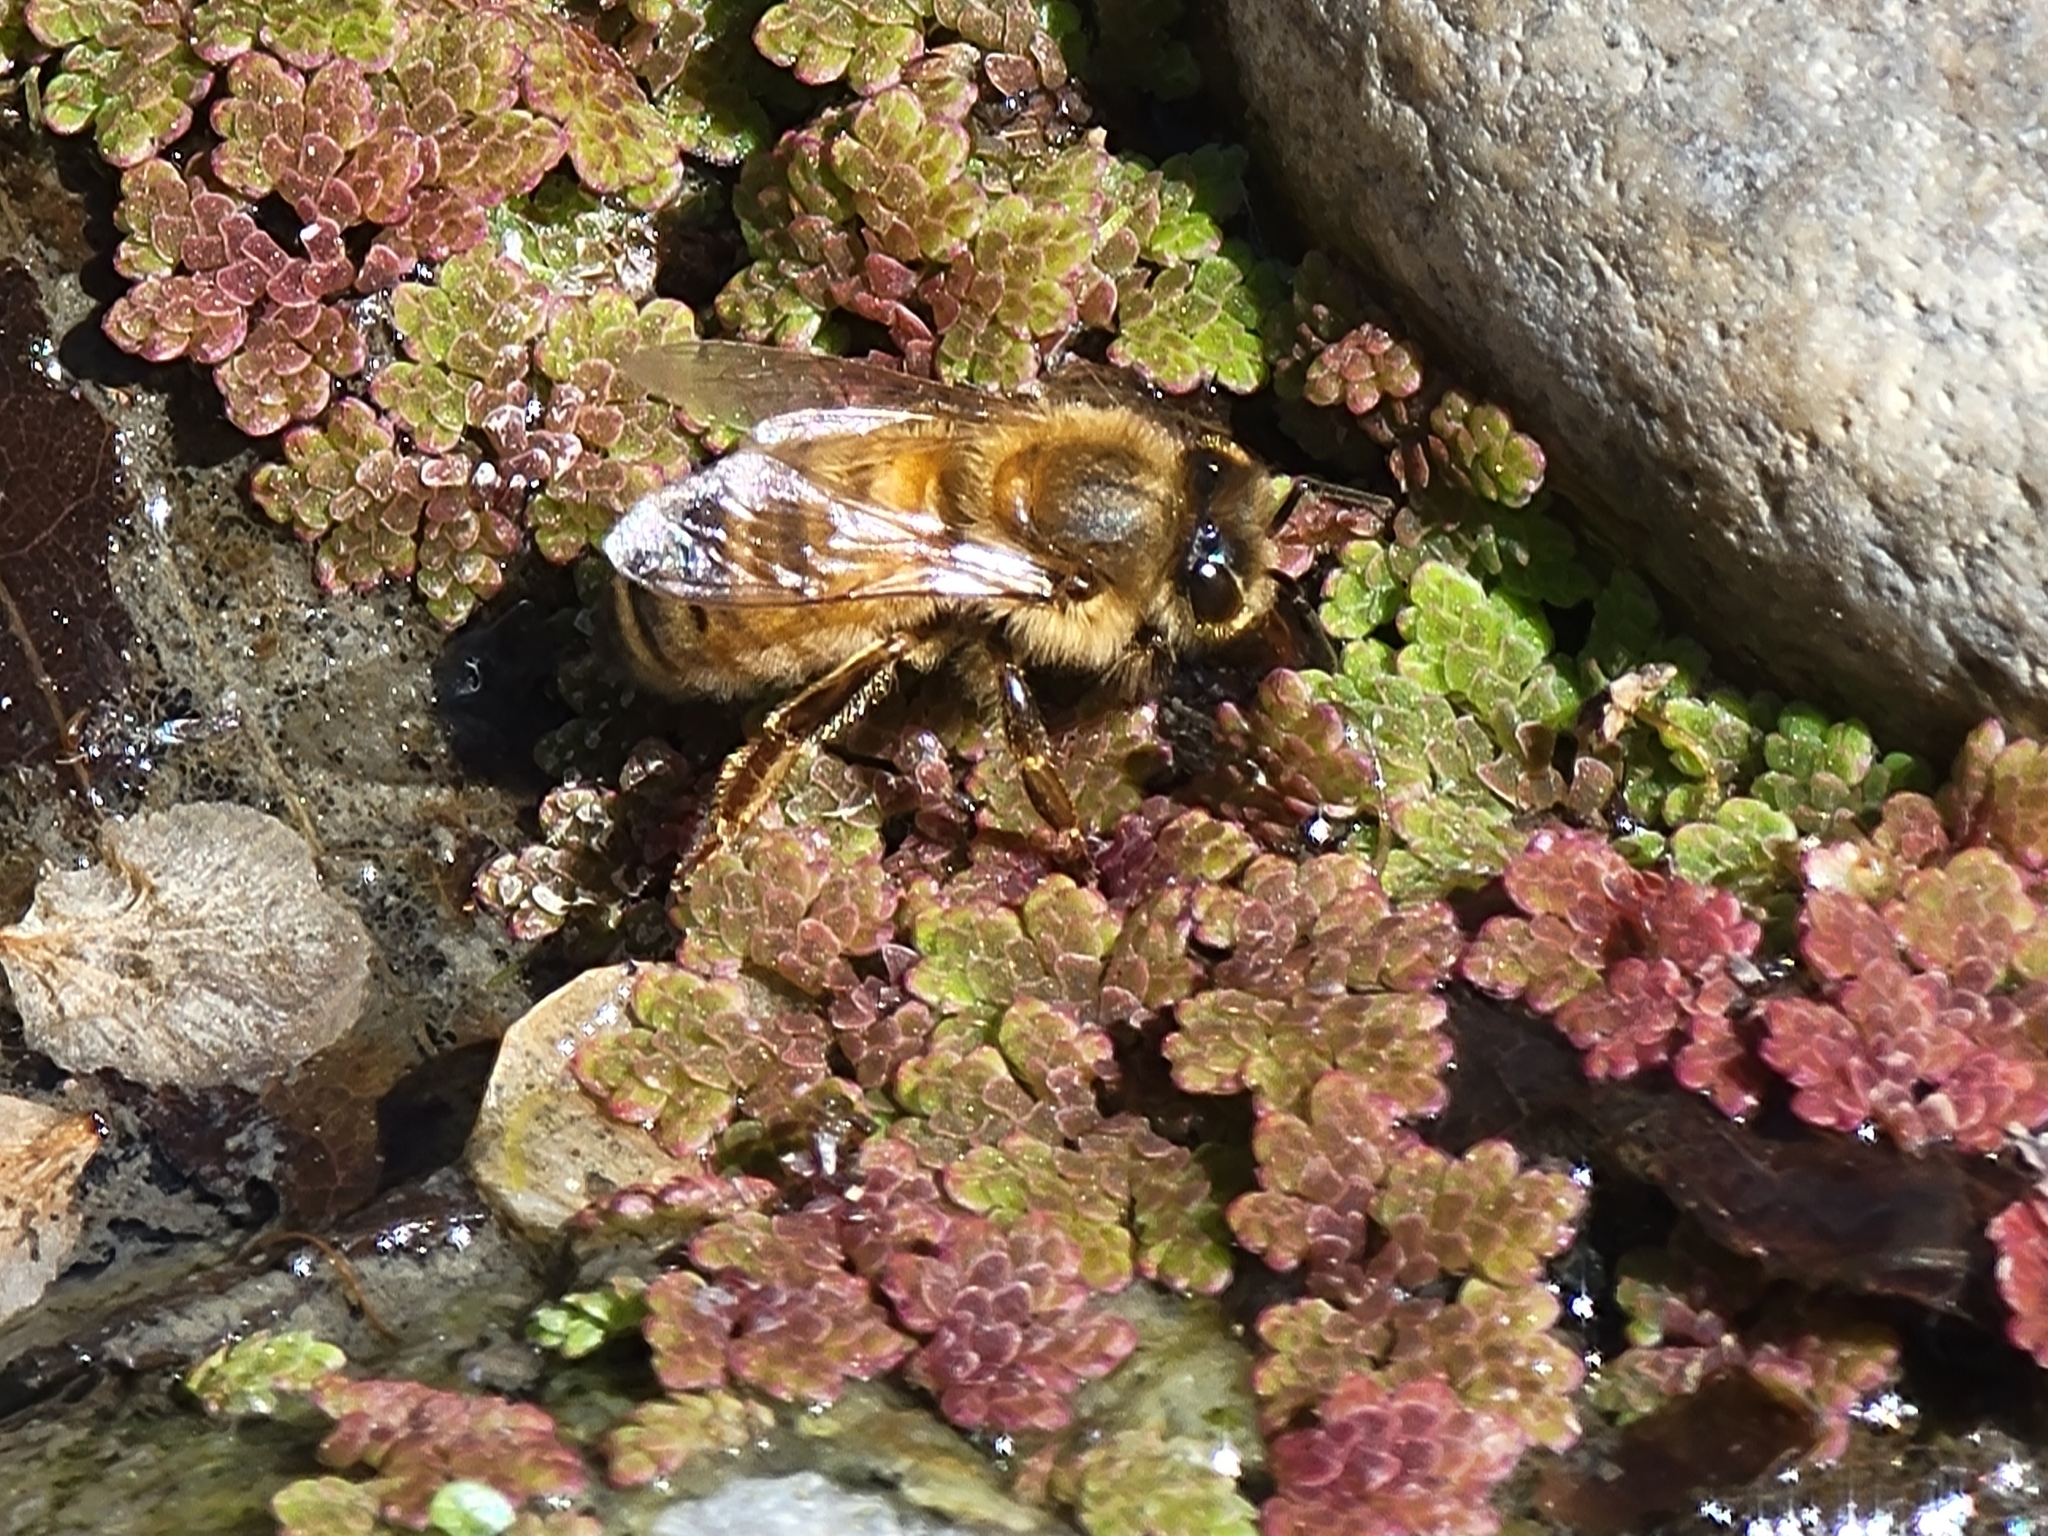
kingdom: Animalia
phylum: Arthropoda
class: Insecta
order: Hymenoptera
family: Apidae
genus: Apis
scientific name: Apis mellifera
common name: Honey bee
